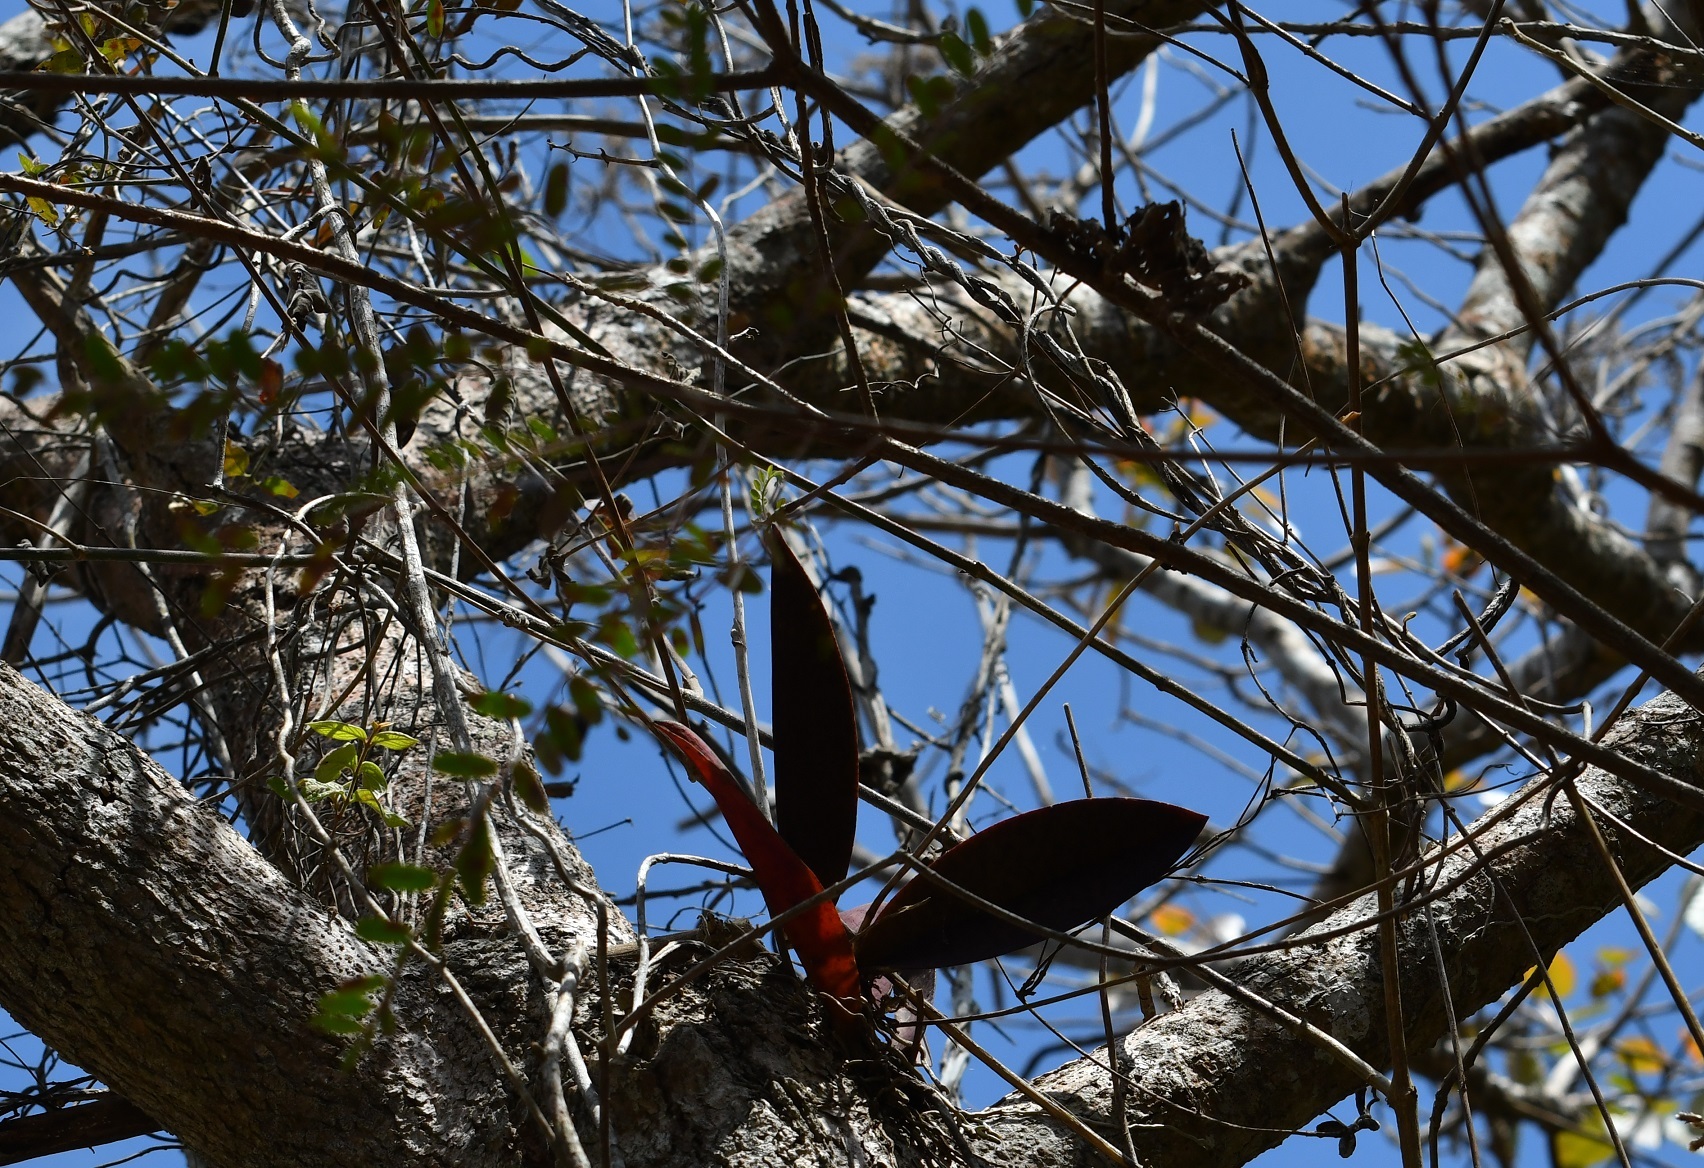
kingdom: Plantae
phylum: Tracheophyta
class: Liliopsida
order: Asparagales
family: Orchidaceae
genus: Trichocentrum
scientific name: Trichocentrum andreanum
